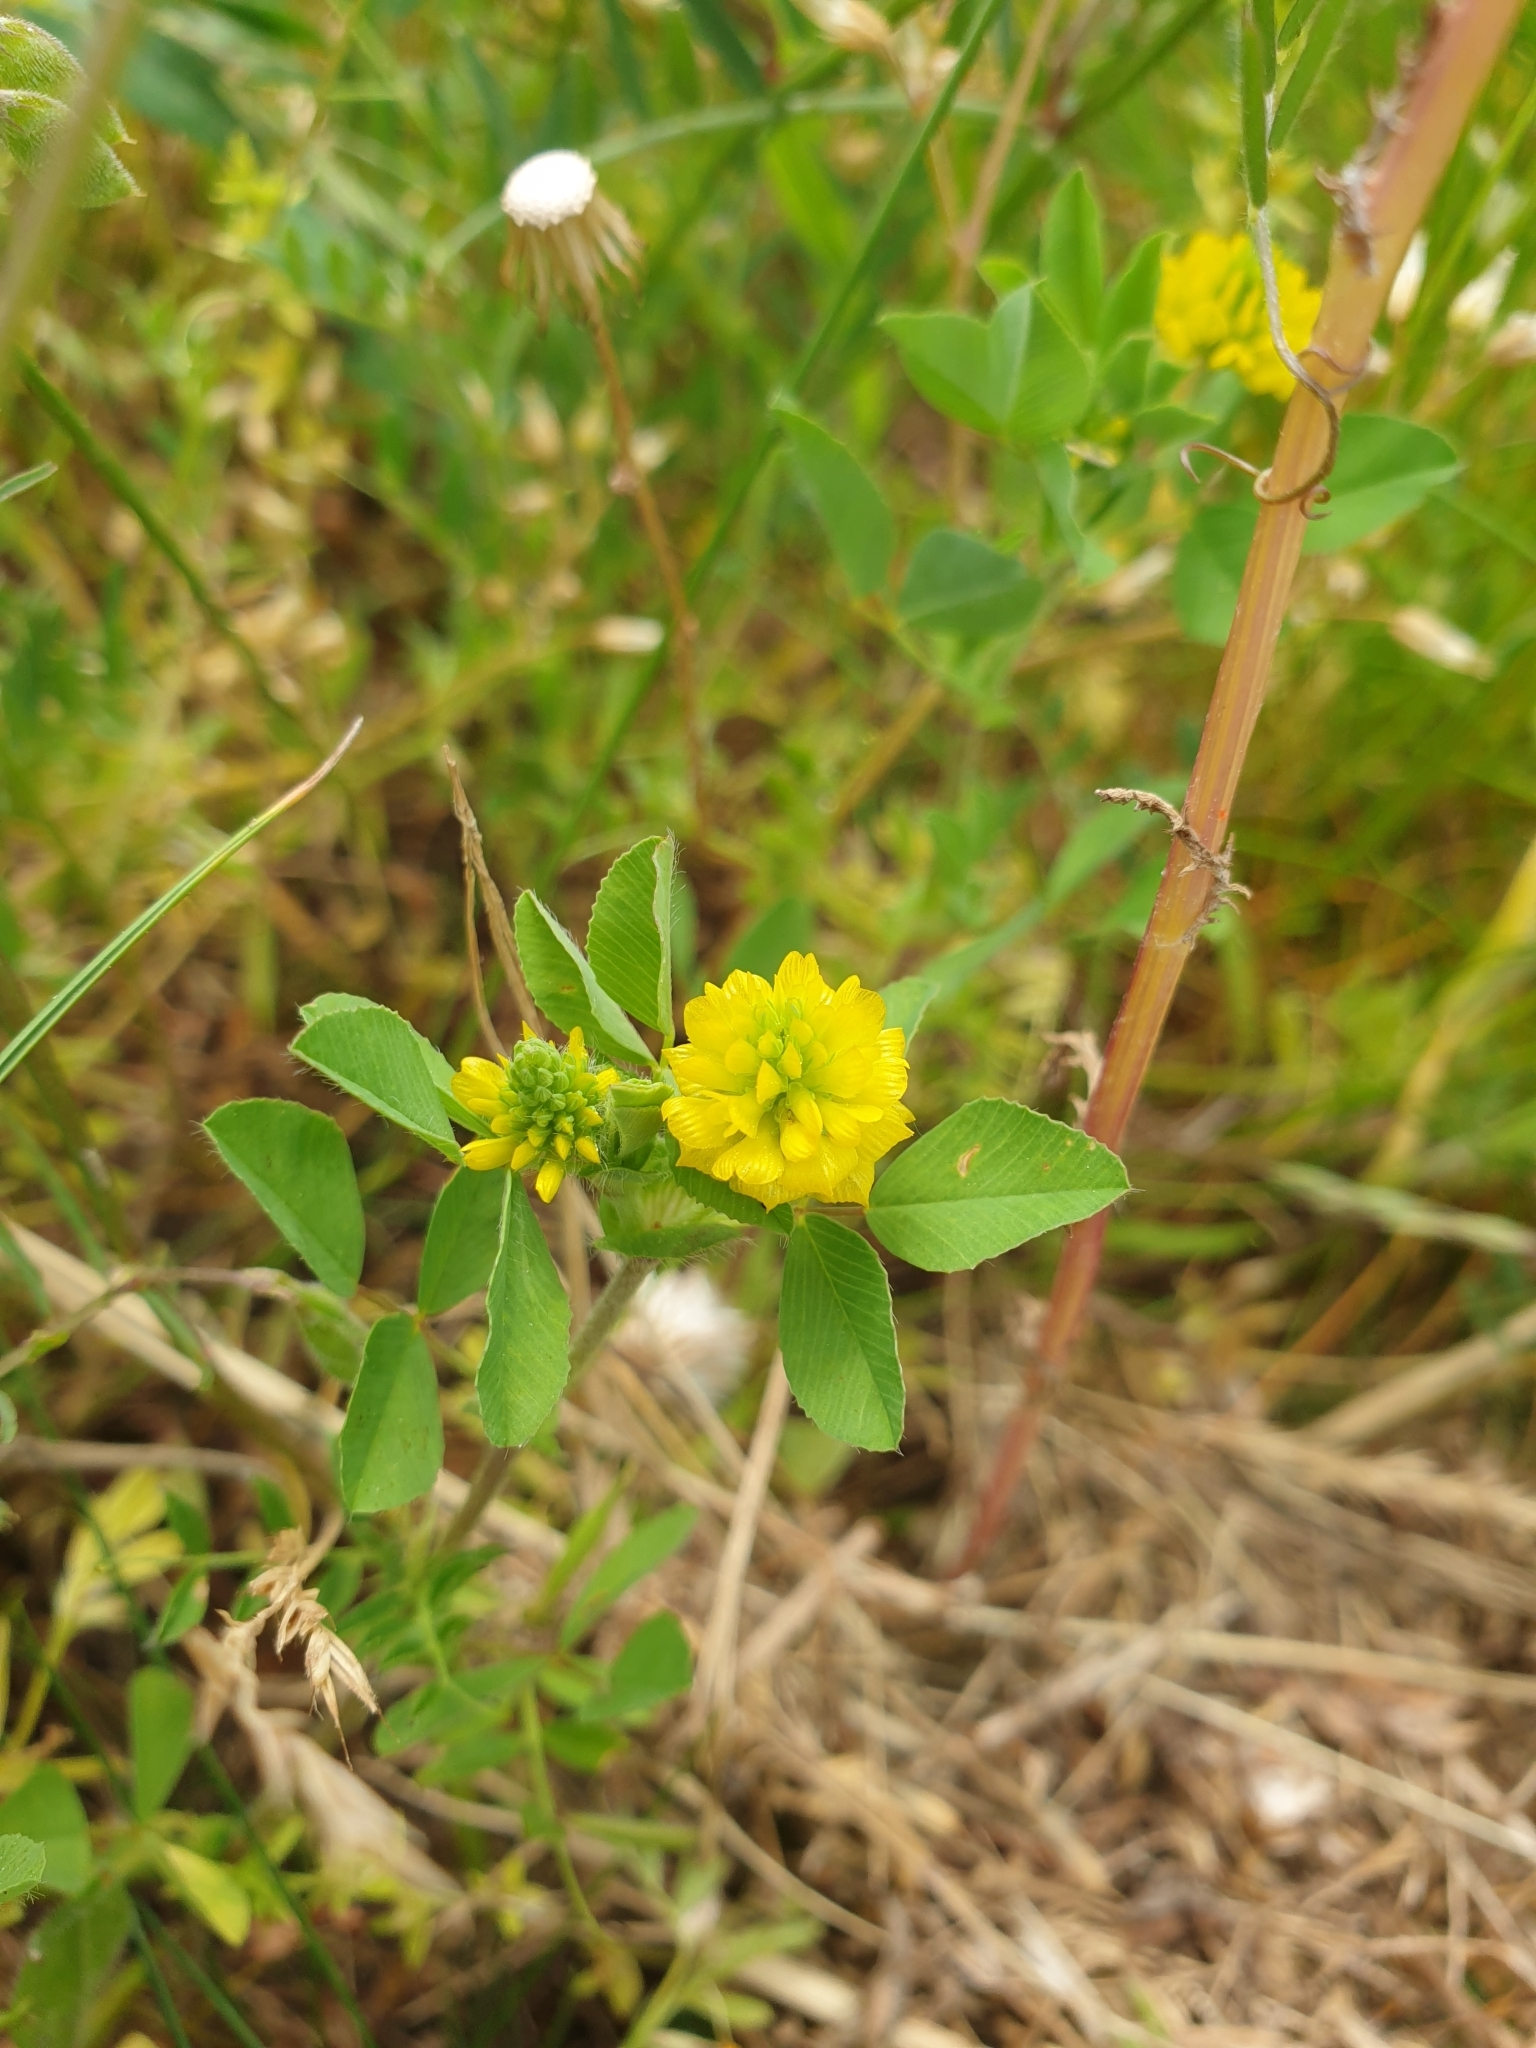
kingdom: Plantae
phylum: Tracheophyta
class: Magnoliopsida
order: Fabales
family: Fabaceae
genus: Trifolium
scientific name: Trifolium campestre
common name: Field clover
